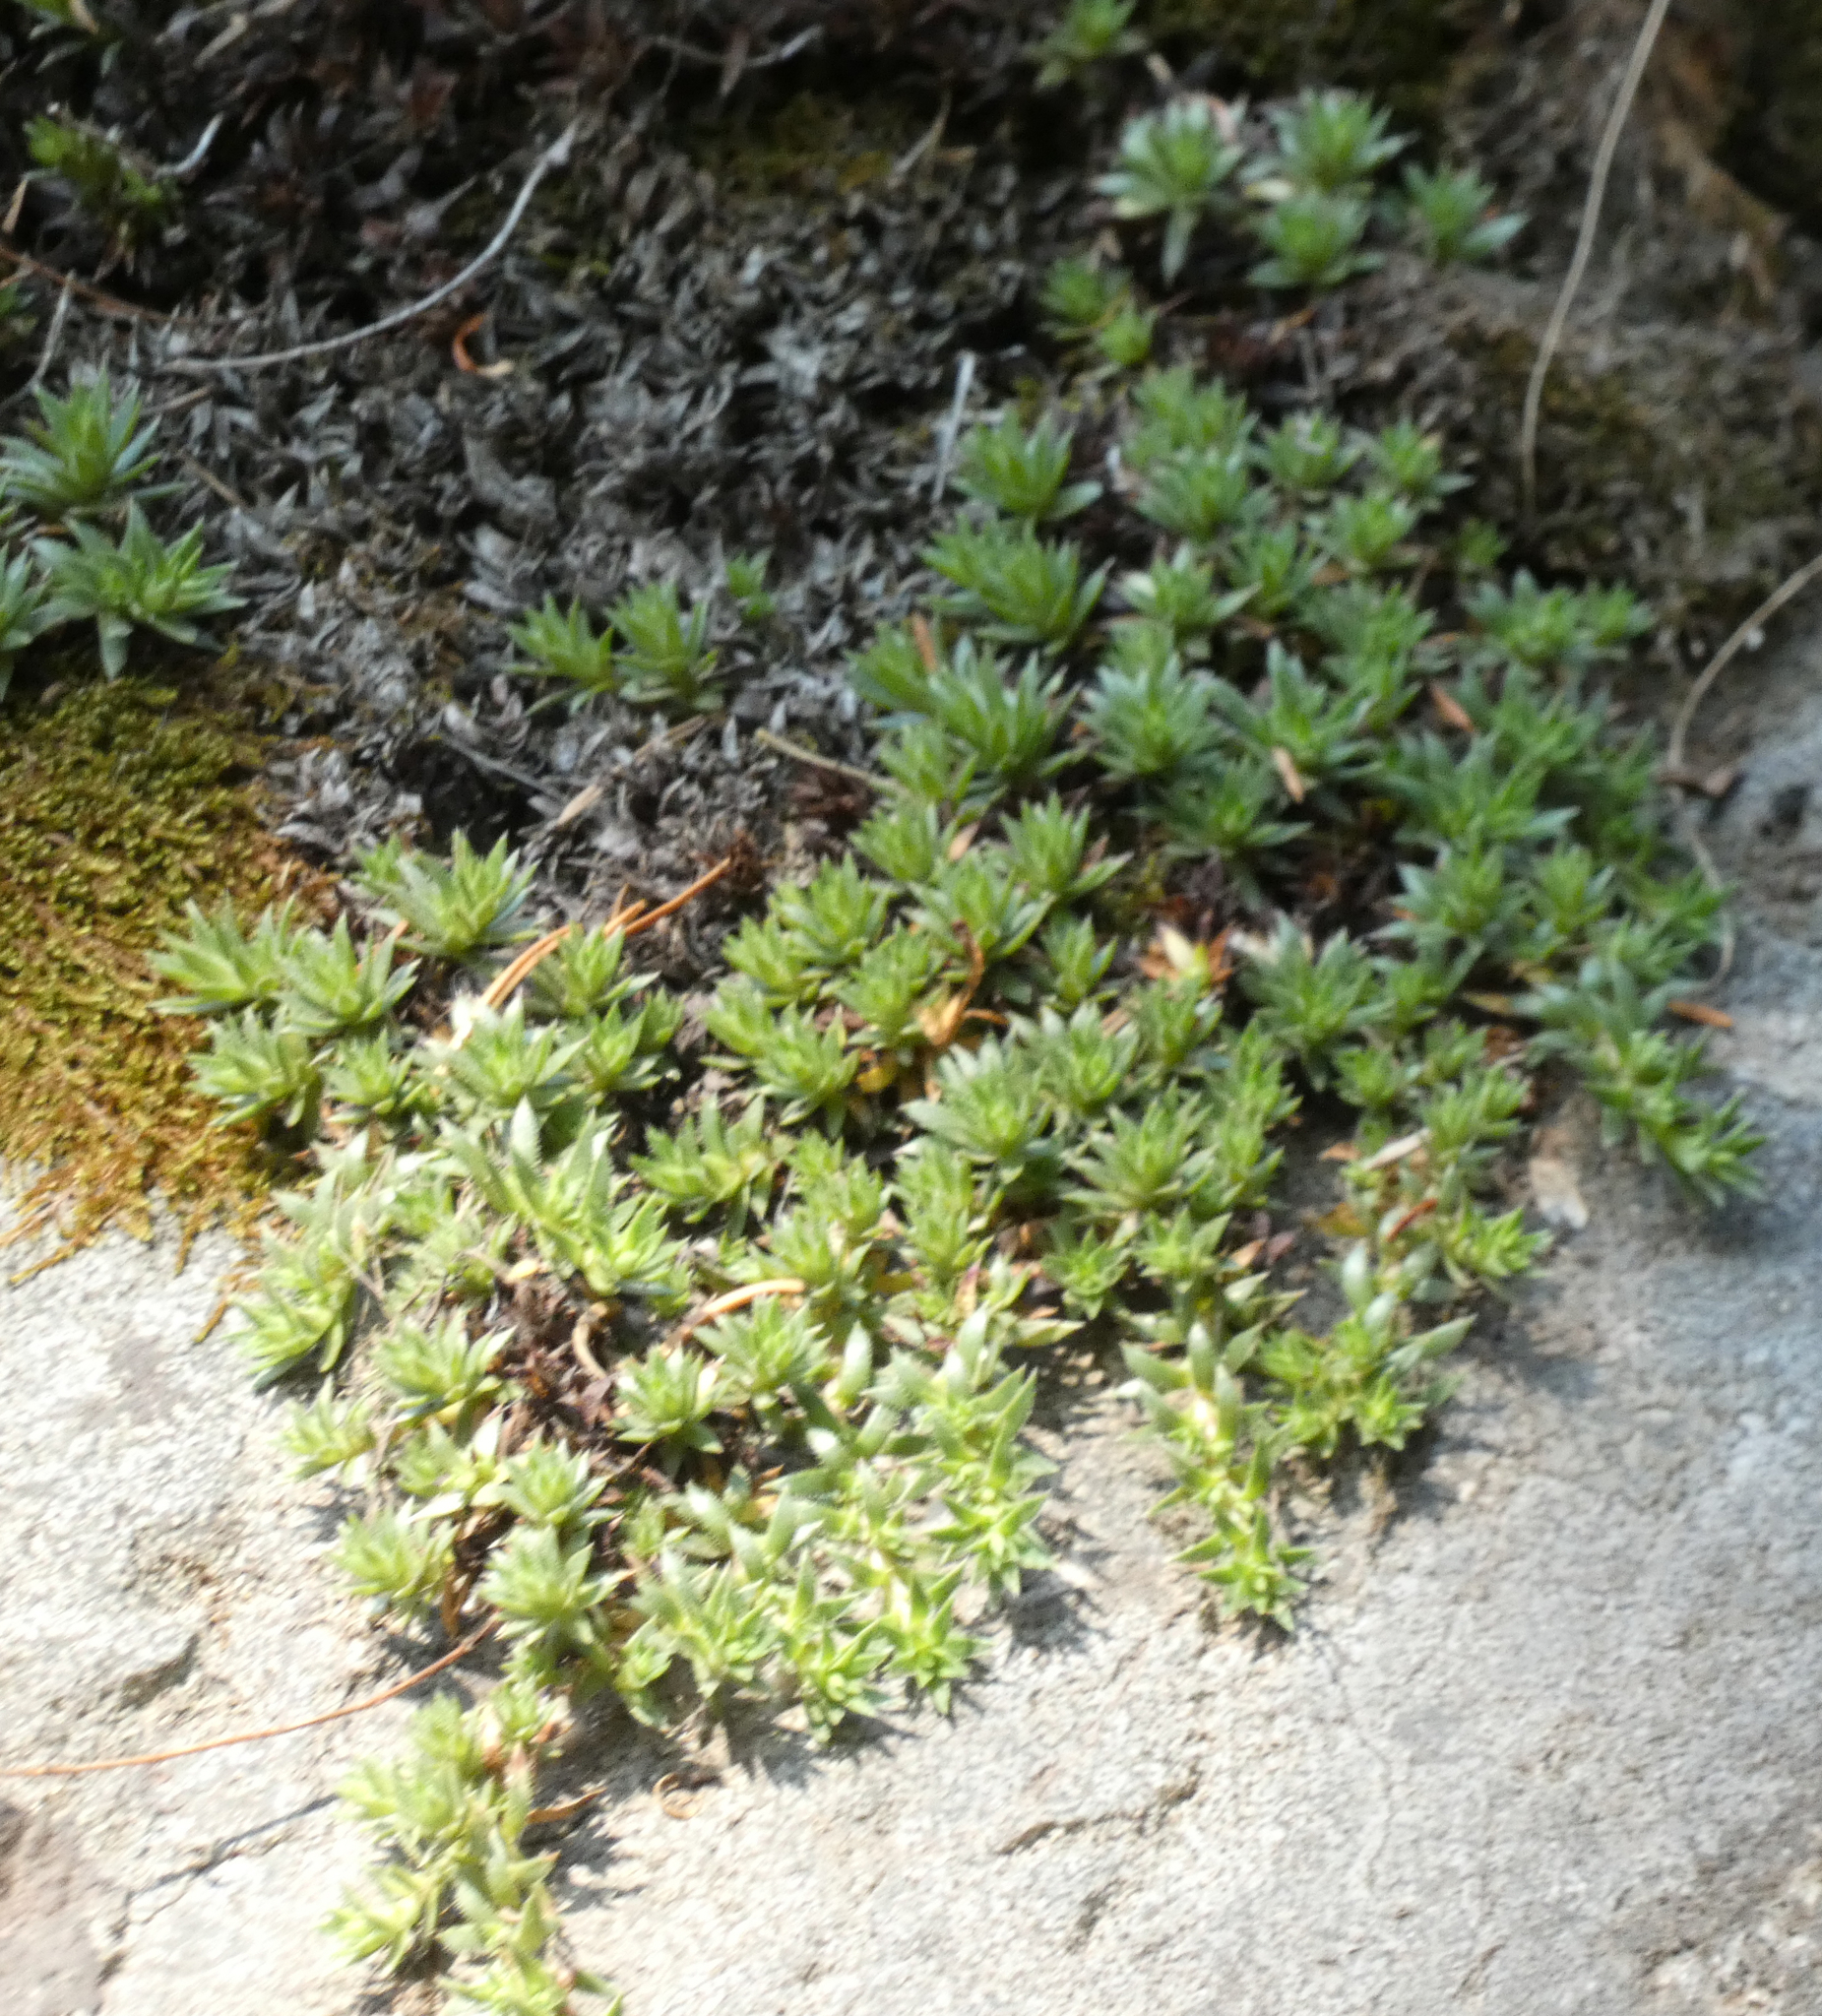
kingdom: Plantae
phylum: Tracheophyta
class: Magnoliopsida
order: Saxifragales
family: Saxifragaceae
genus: Saxifraga
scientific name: Saxifraga bronchialis
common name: Matted saxifrage
